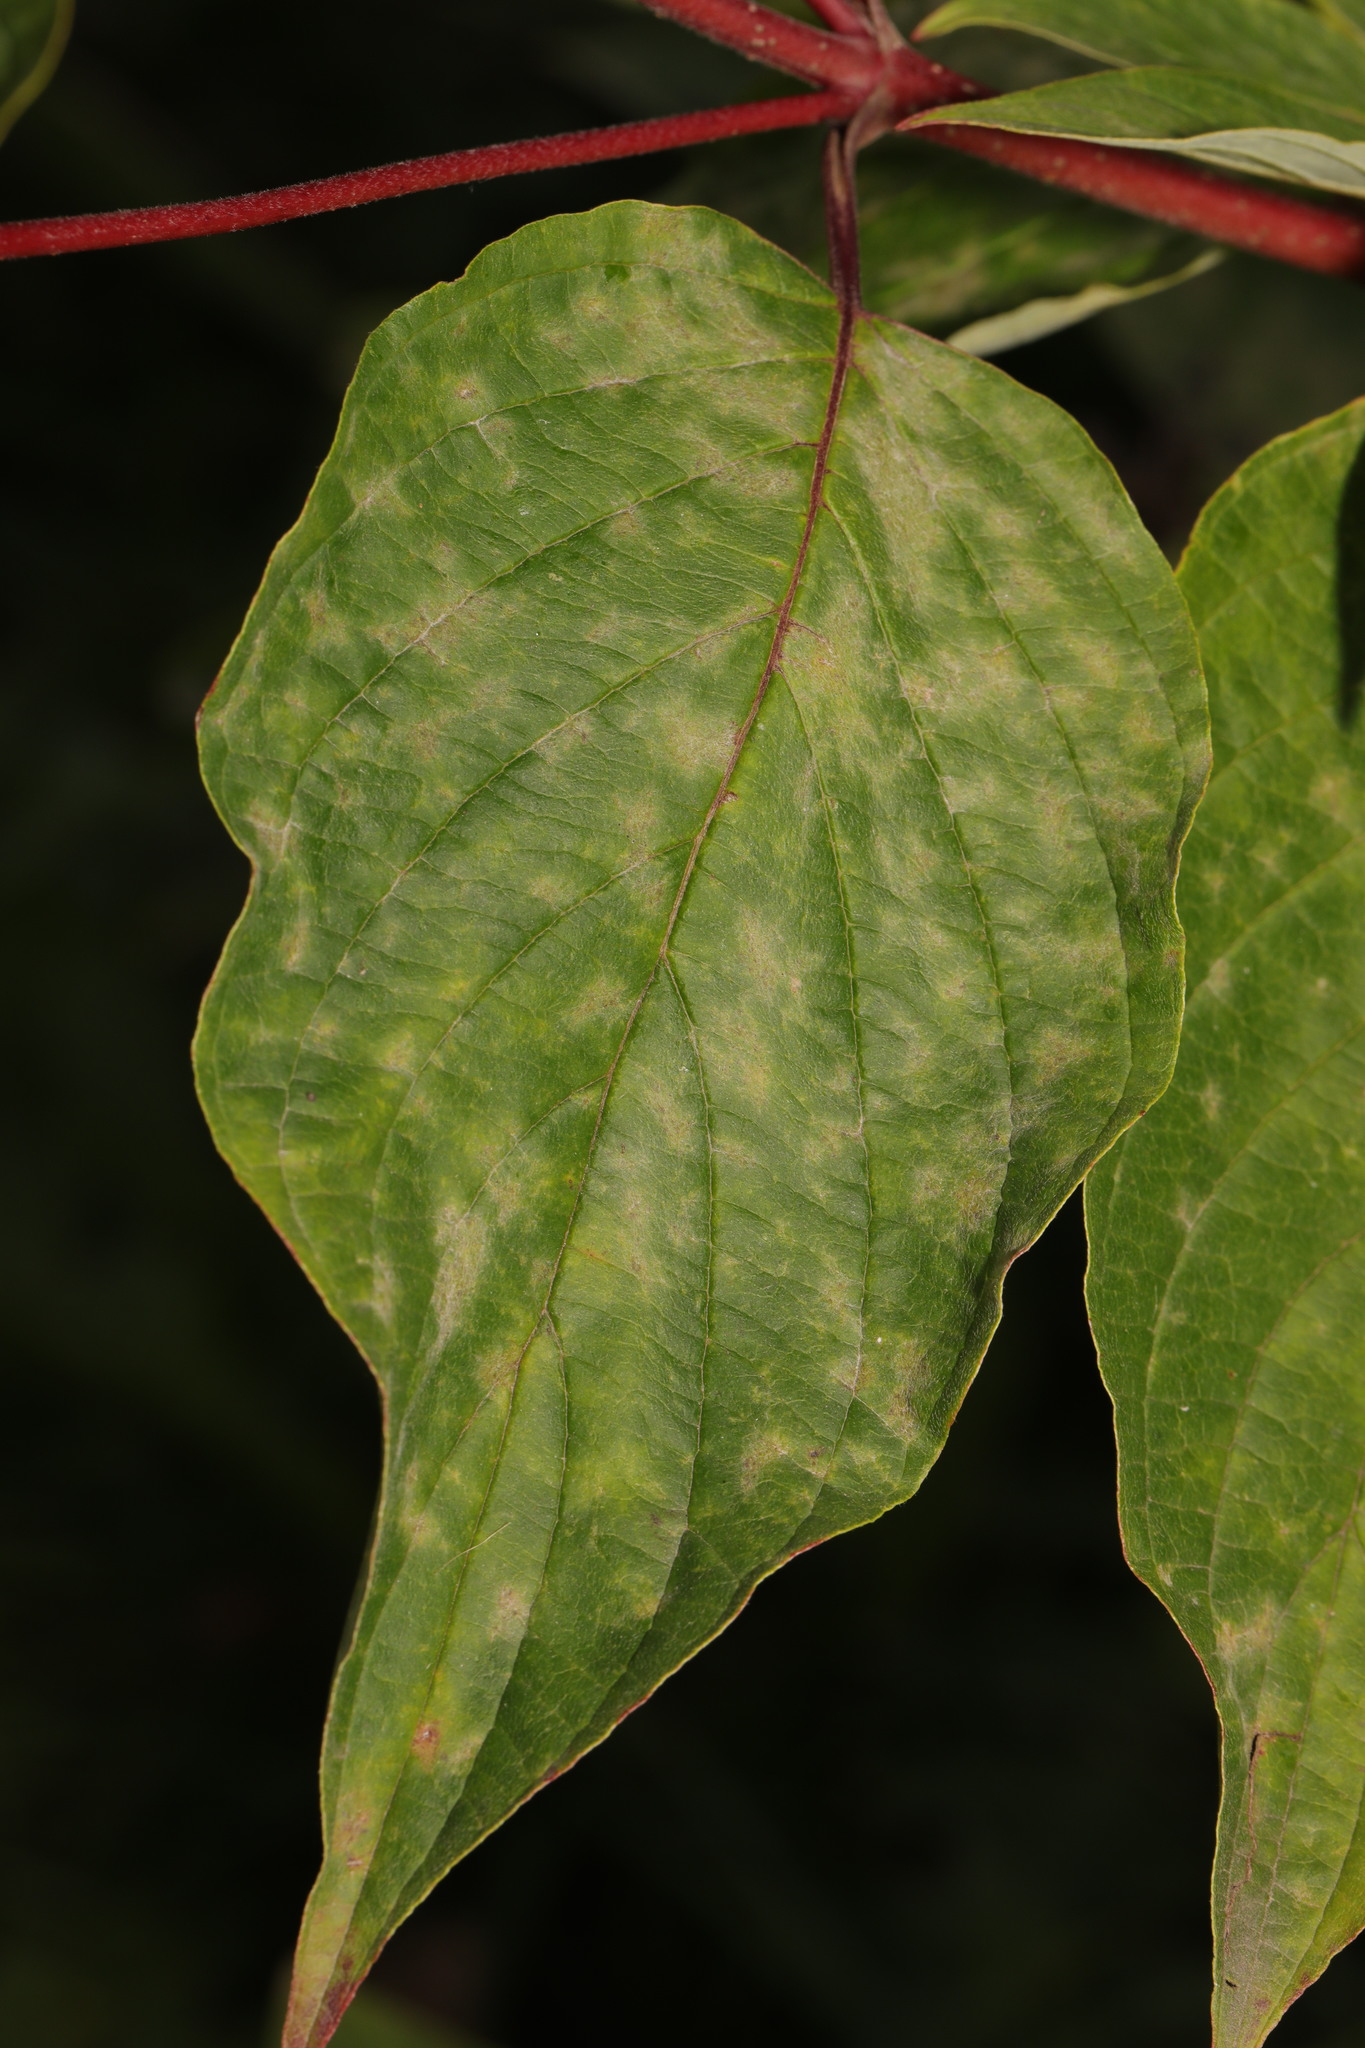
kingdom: Fungi
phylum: Ascomycota
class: Leotiomycetes
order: Helotiales
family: Erysiphaceae
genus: Erysiphe
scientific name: Erysiphe tortilis
